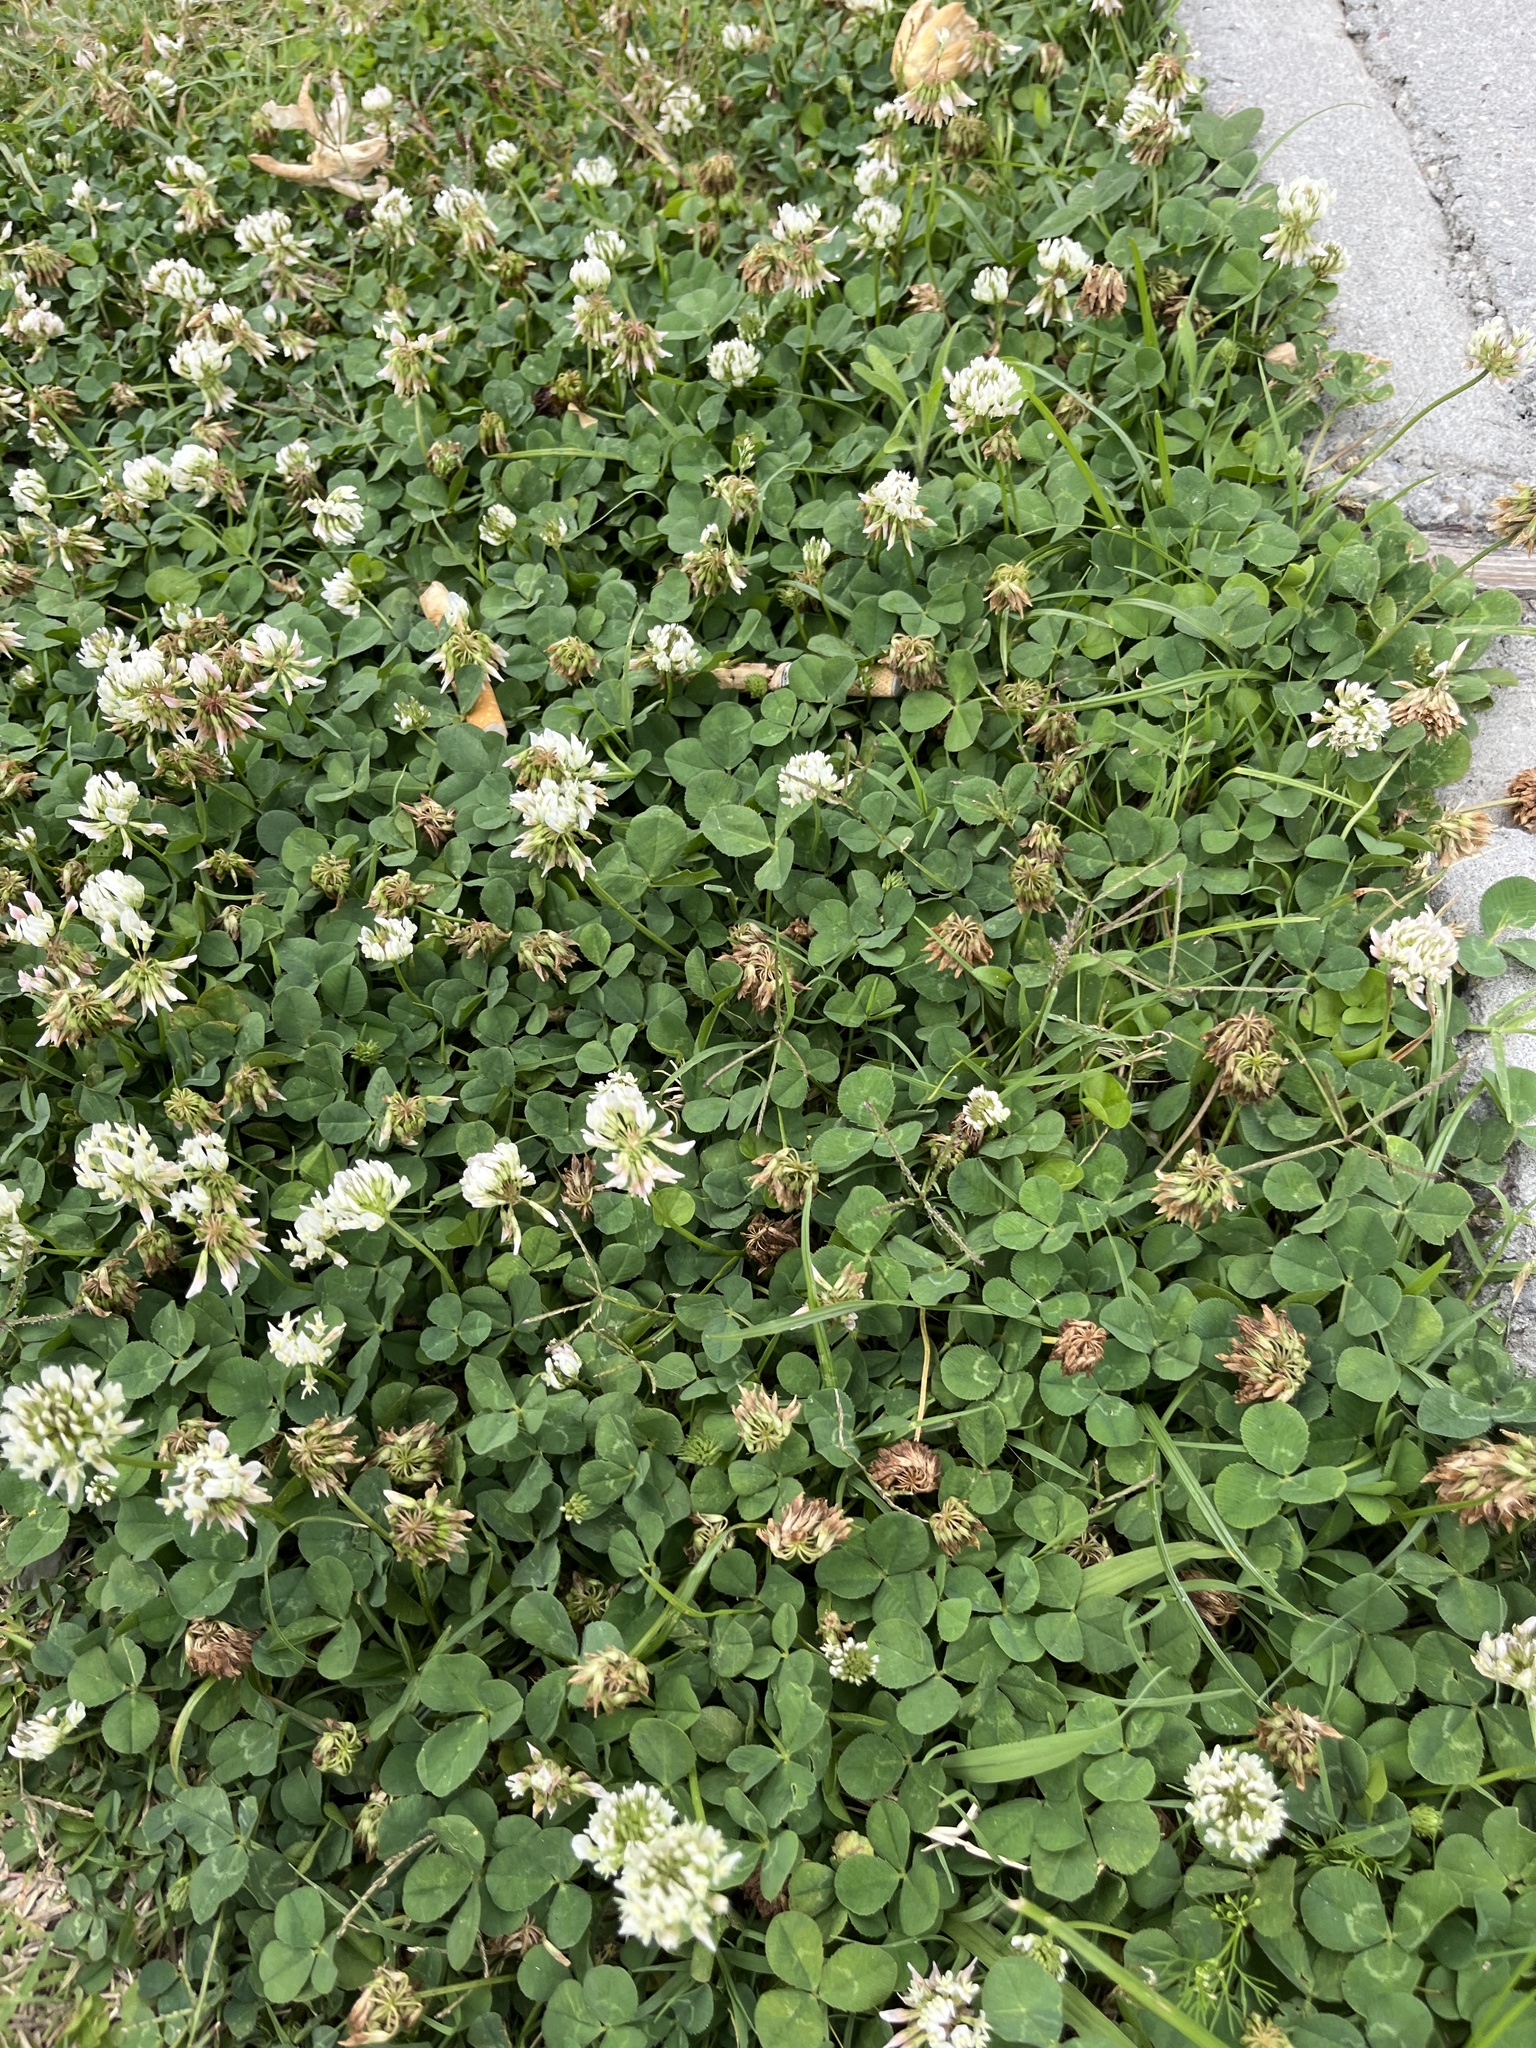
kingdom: Plantae
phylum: Tracheophyta
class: Magnoliopsida
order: Fabales
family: Fabaceae
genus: Trifolium
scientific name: Trifolium repens
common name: White clover
